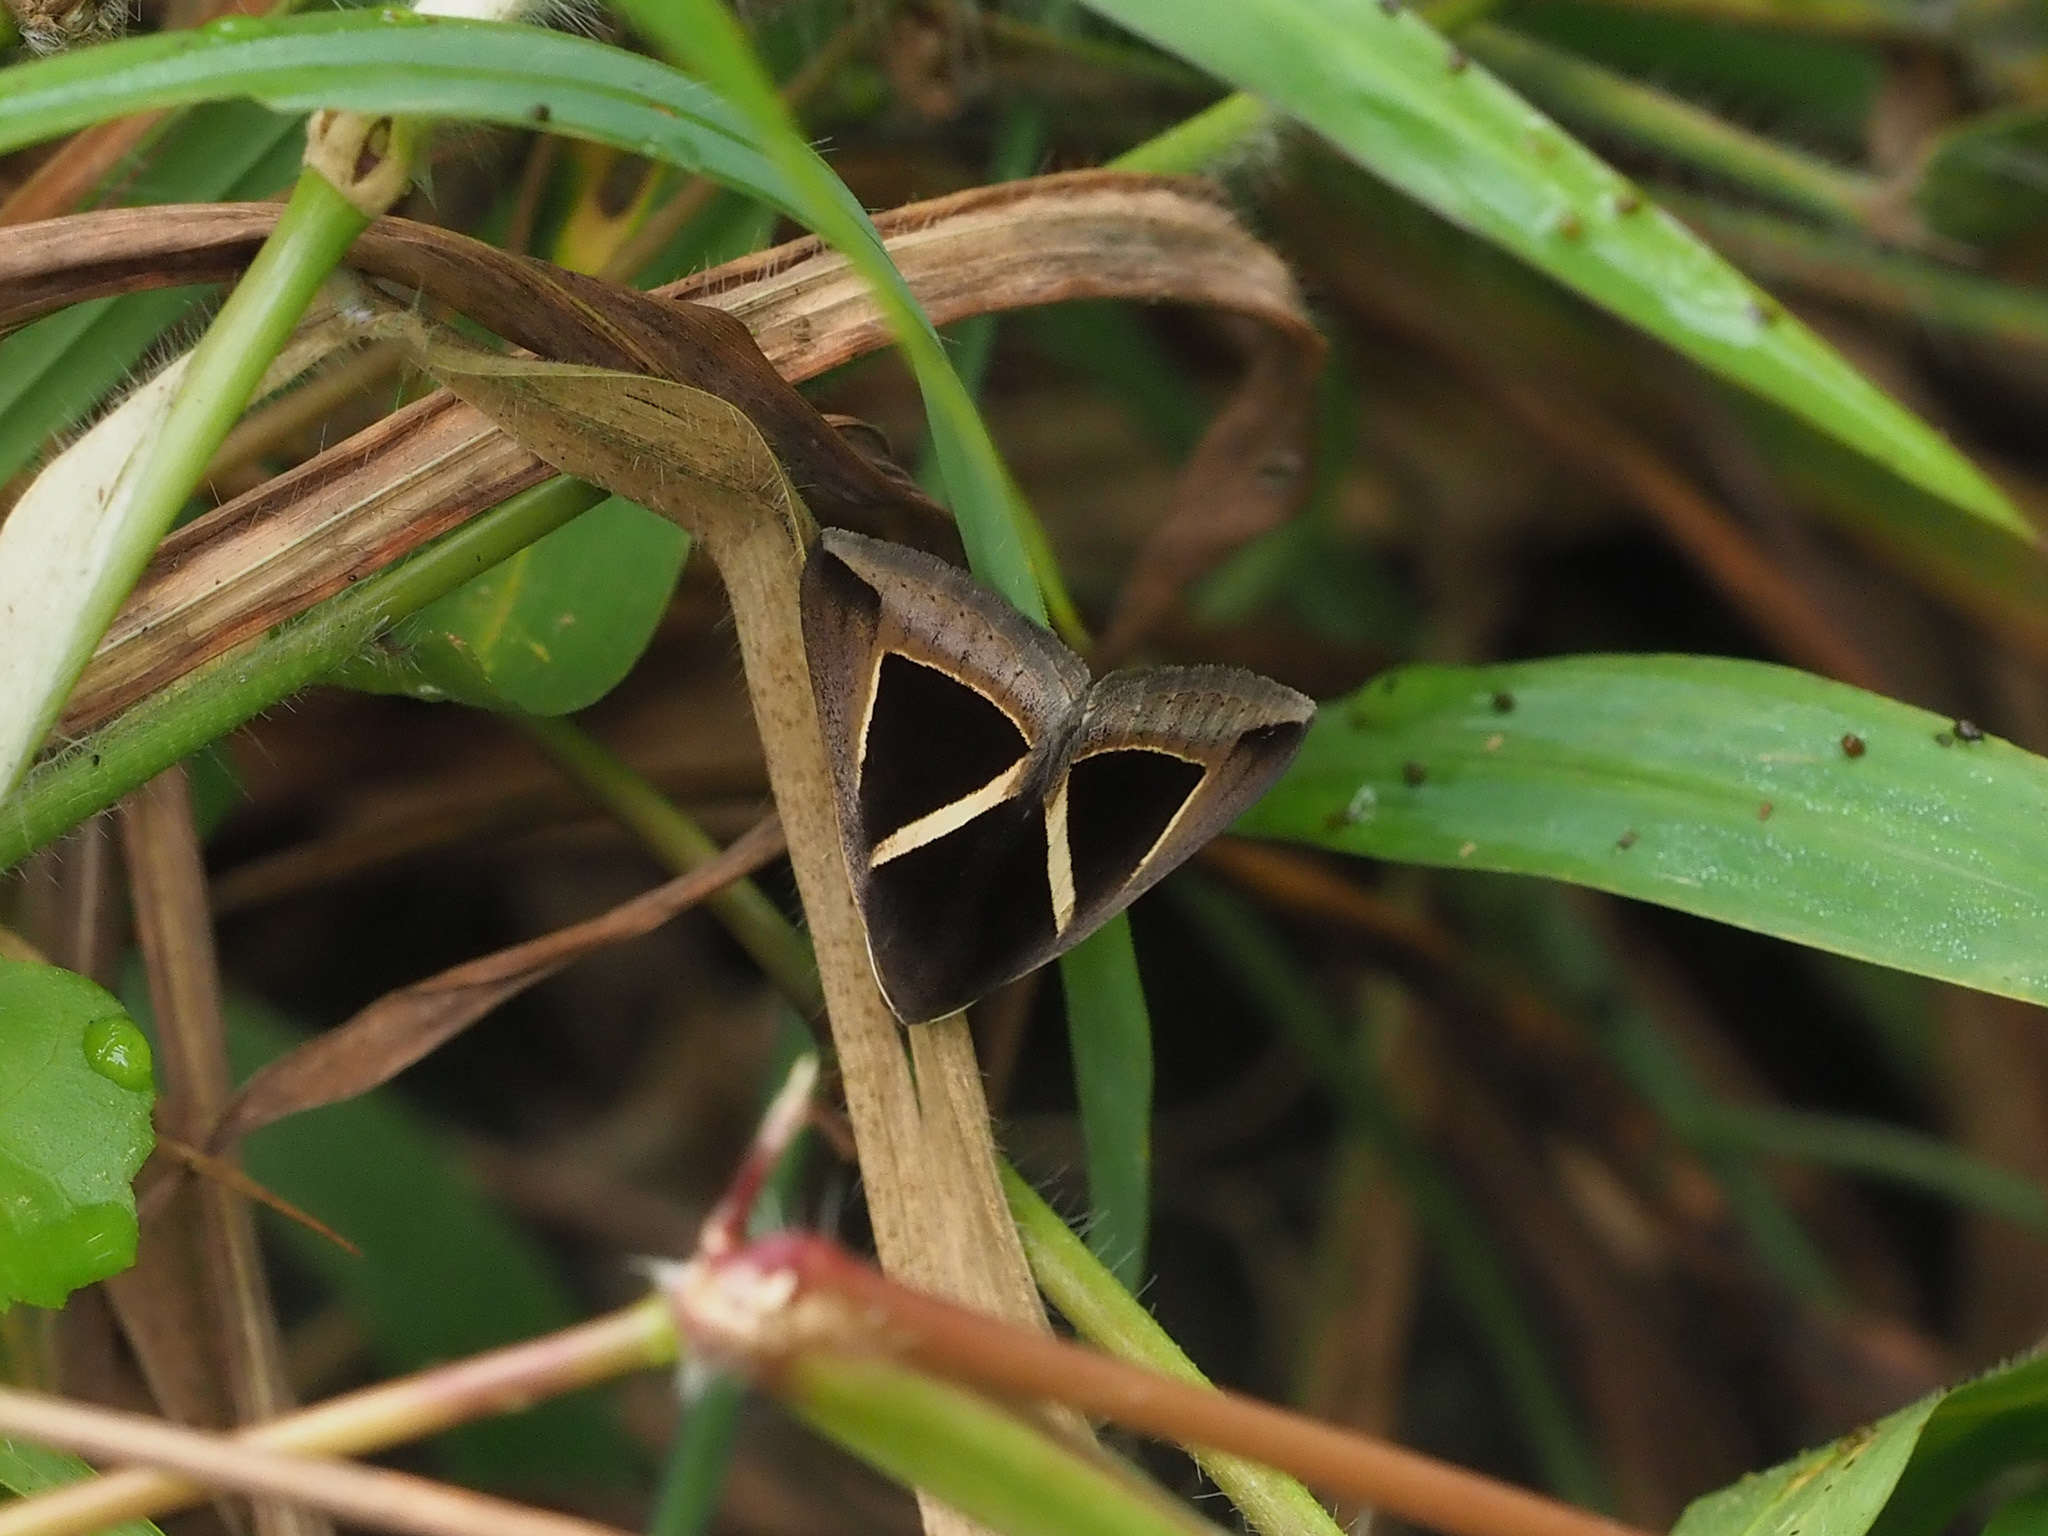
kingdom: Animalia
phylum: Arthropoda
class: Insecta
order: Lepidoptera
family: Erebidae
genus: Chalciope
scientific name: Chalciope mygdon
